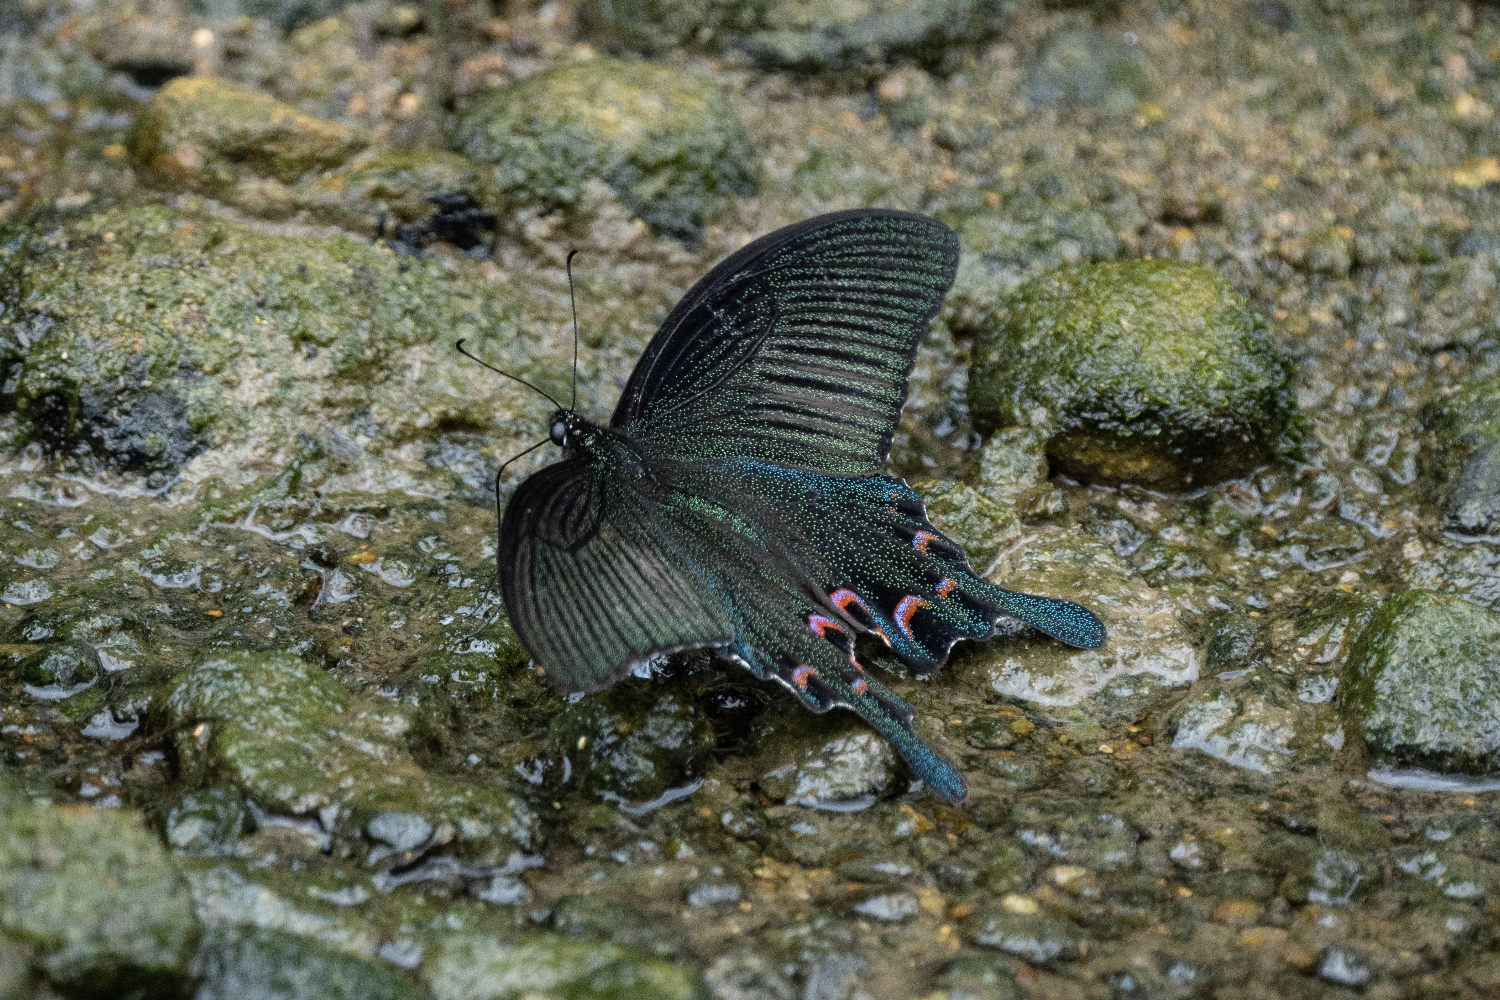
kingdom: Animalia
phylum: Arthropoda
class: Insecta
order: Lepidoptera
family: Papilionidae
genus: Papilio
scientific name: Papilio dialis
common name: Southern chinese peacock swallowtail
